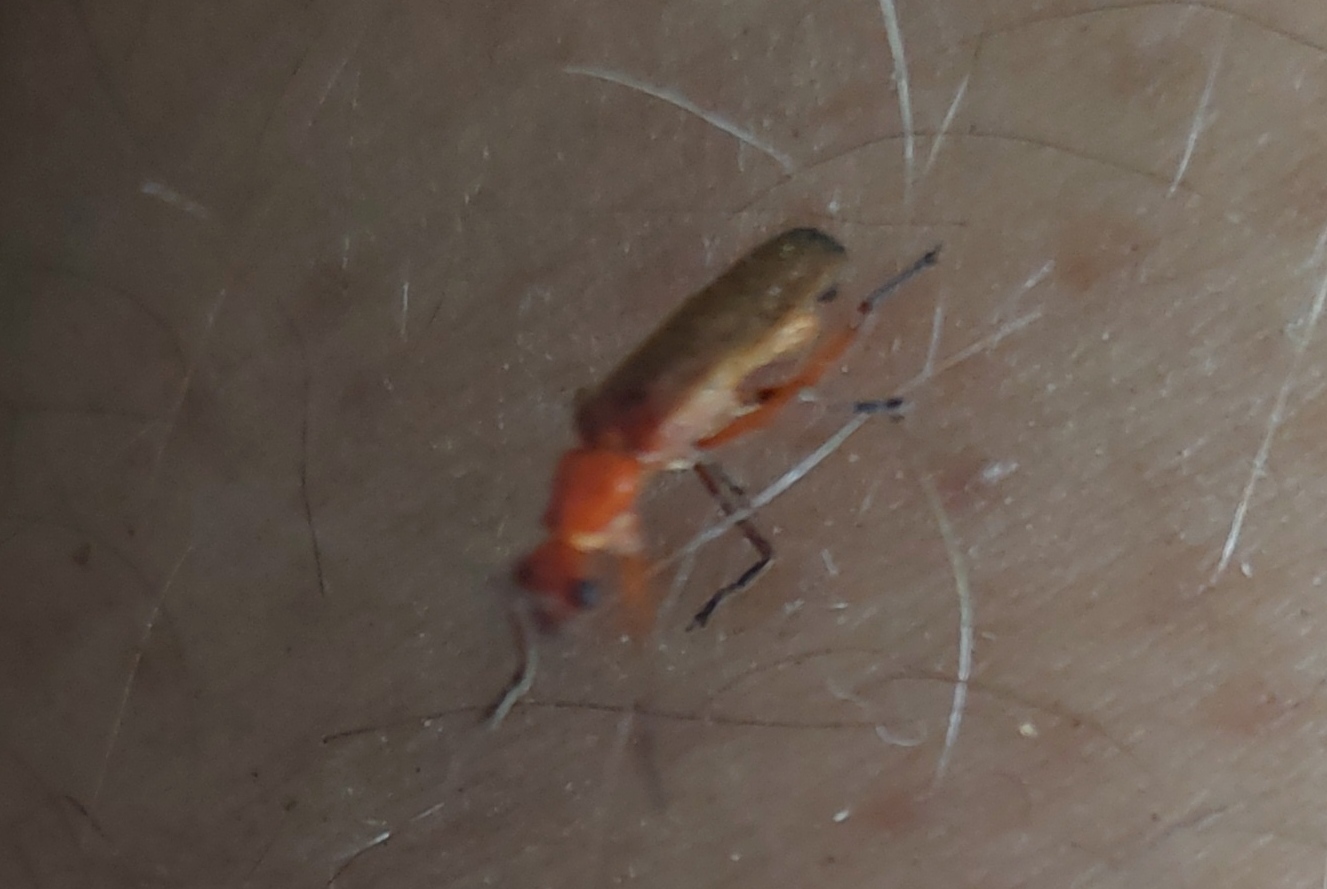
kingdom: Animalia
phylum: Arthropoda
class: Insecta
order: Coleoptera
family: Cantharidae
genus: Rhagonycha
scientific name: Rhagonycha fulva
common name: Common red soldier beetle
